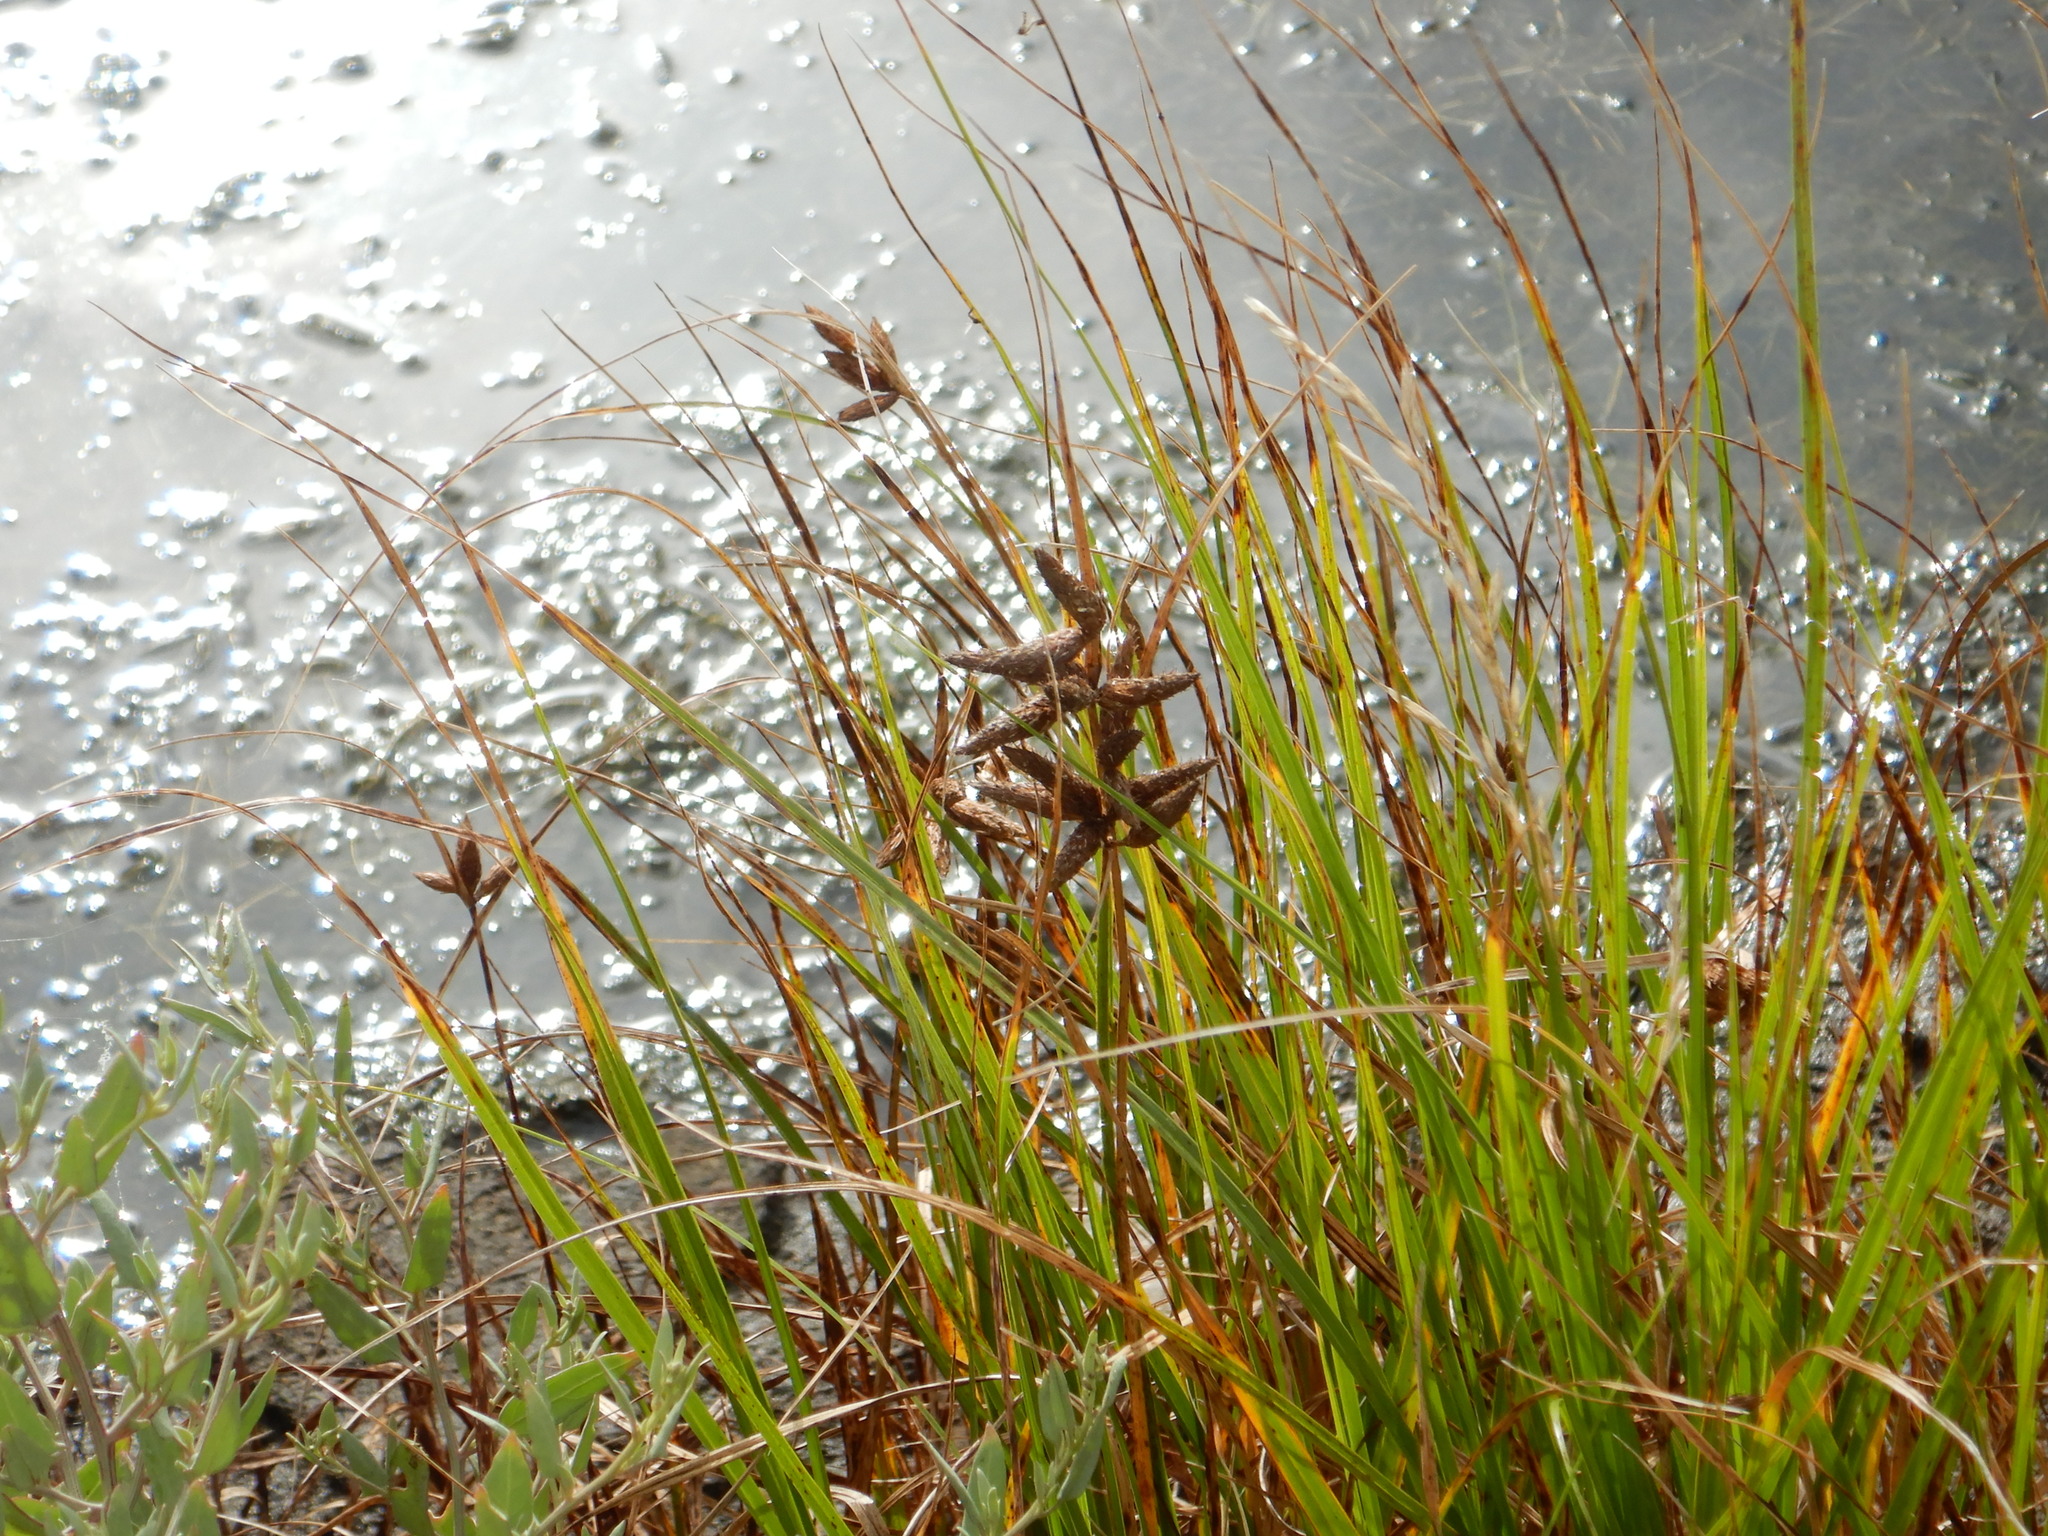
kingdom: Plantae
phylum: Tracheophyta
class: Liliopsida
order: Poales
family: Cyperaceae
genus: Bolboschoenus
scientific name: Bolboschoenus maritimus
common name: Sea club-rush
